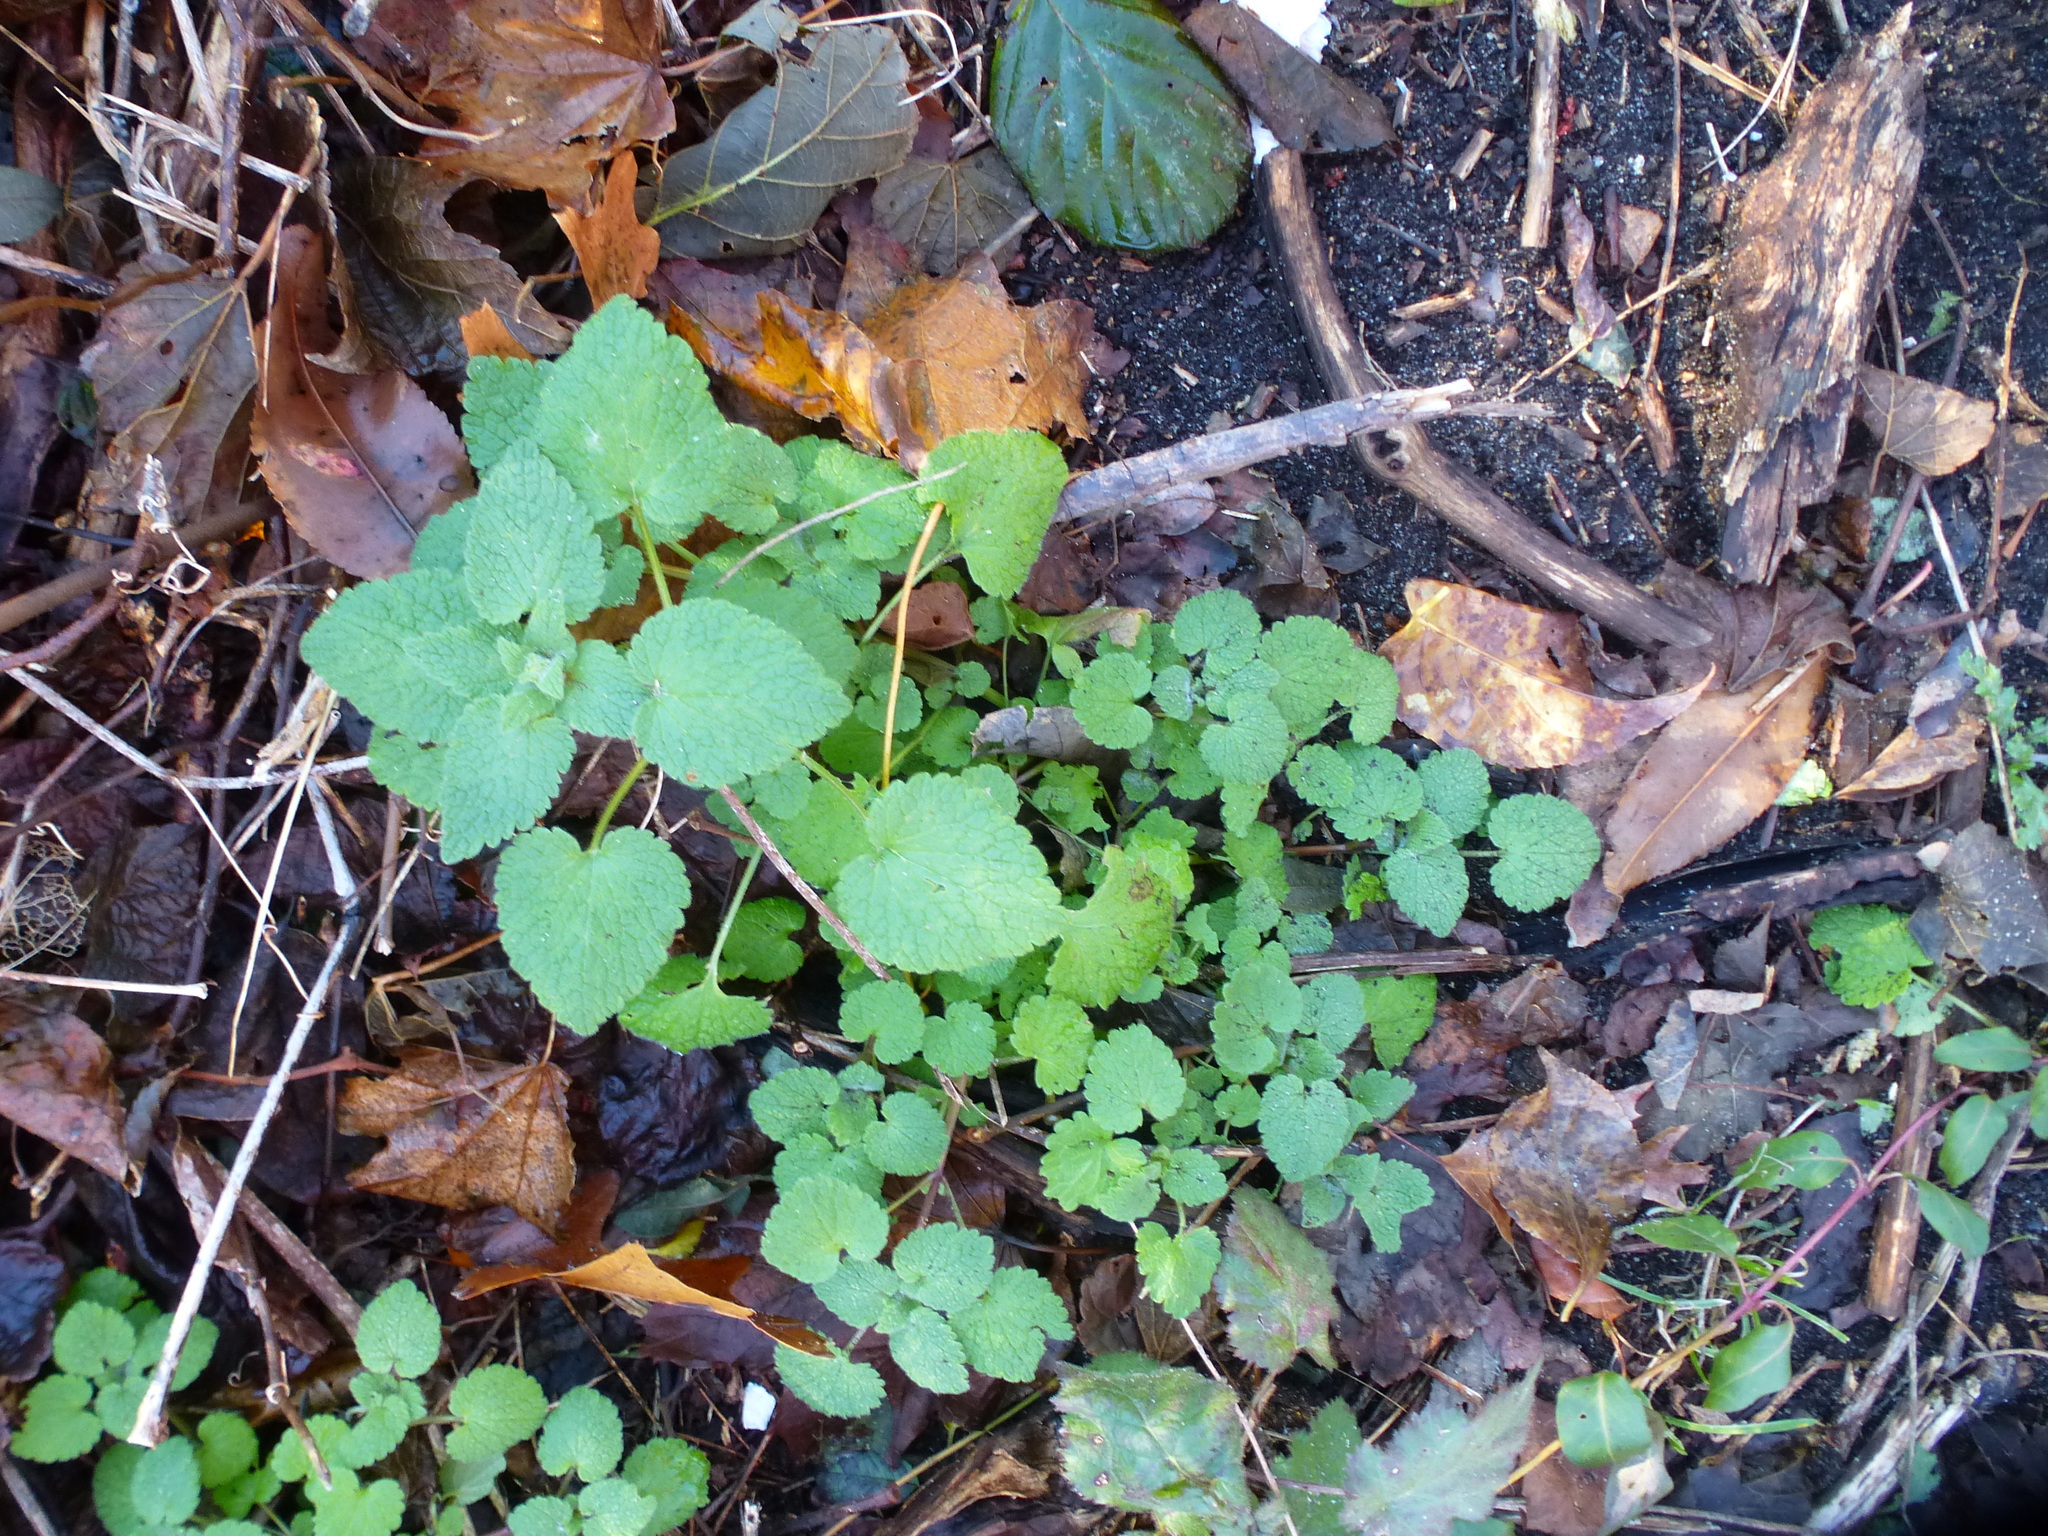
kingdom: Plantae
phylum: Tracheophyta
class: Magnoliopsida
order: Lamiales
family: Lamiaceae
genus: Lamium
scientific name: Lamium purpureum
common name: Red dead-nettle
